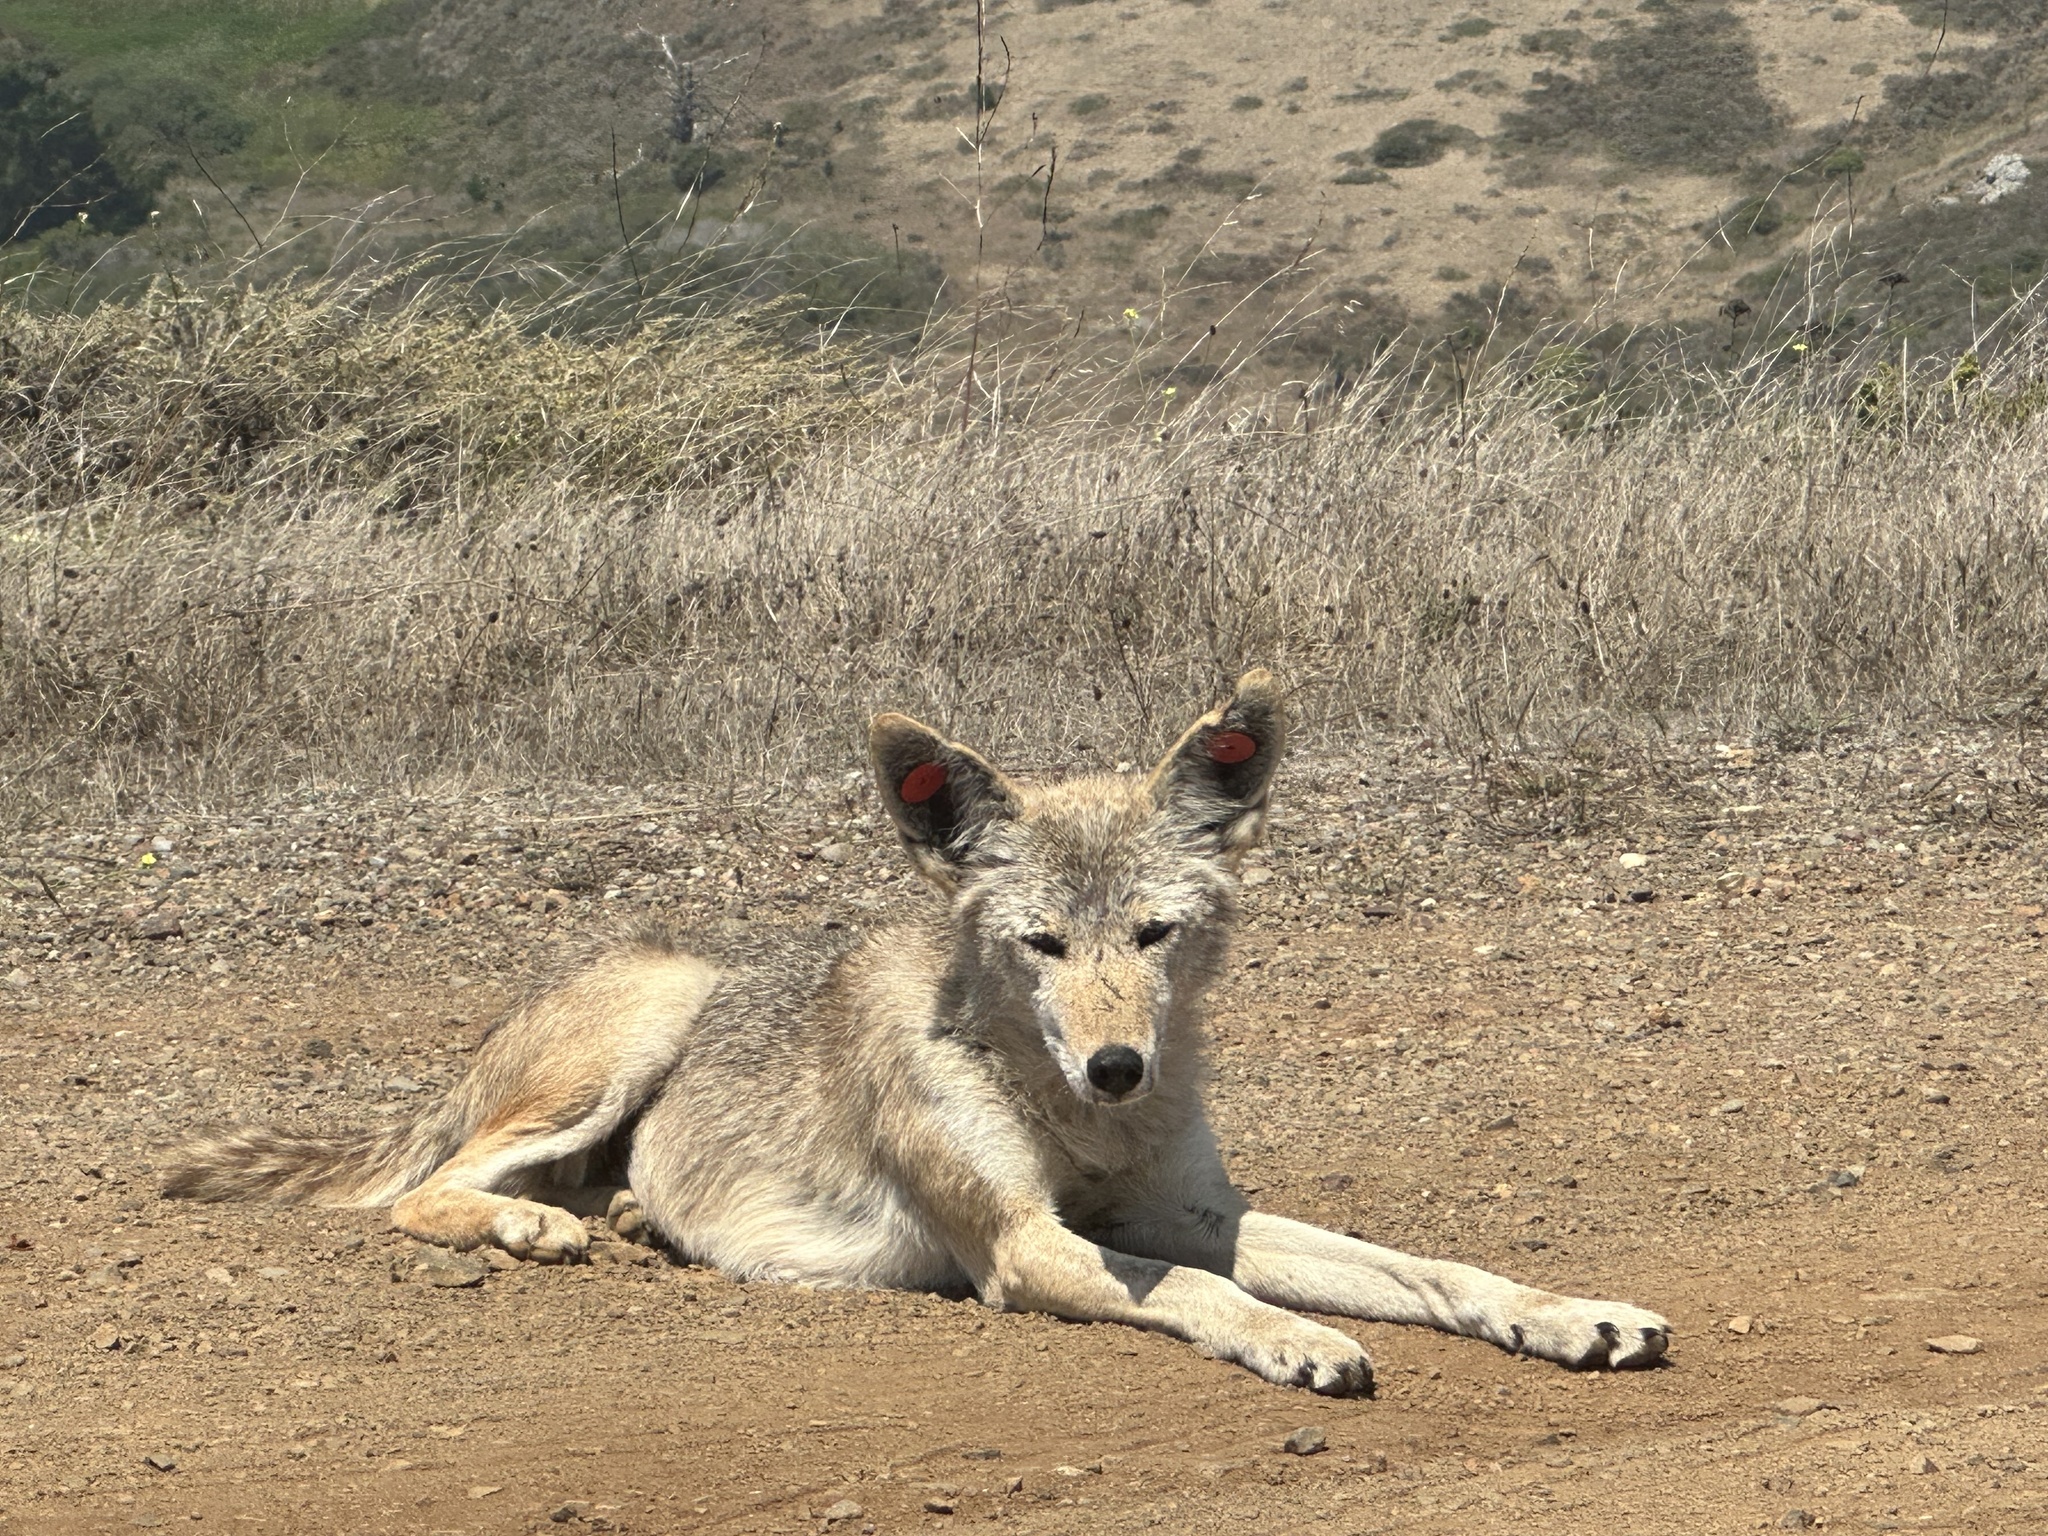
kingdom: Animalia
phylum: Chordata
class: Mammalia
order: Carnivora
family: Canidae
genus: Canis
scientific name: Canis latrans
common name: Coyote
